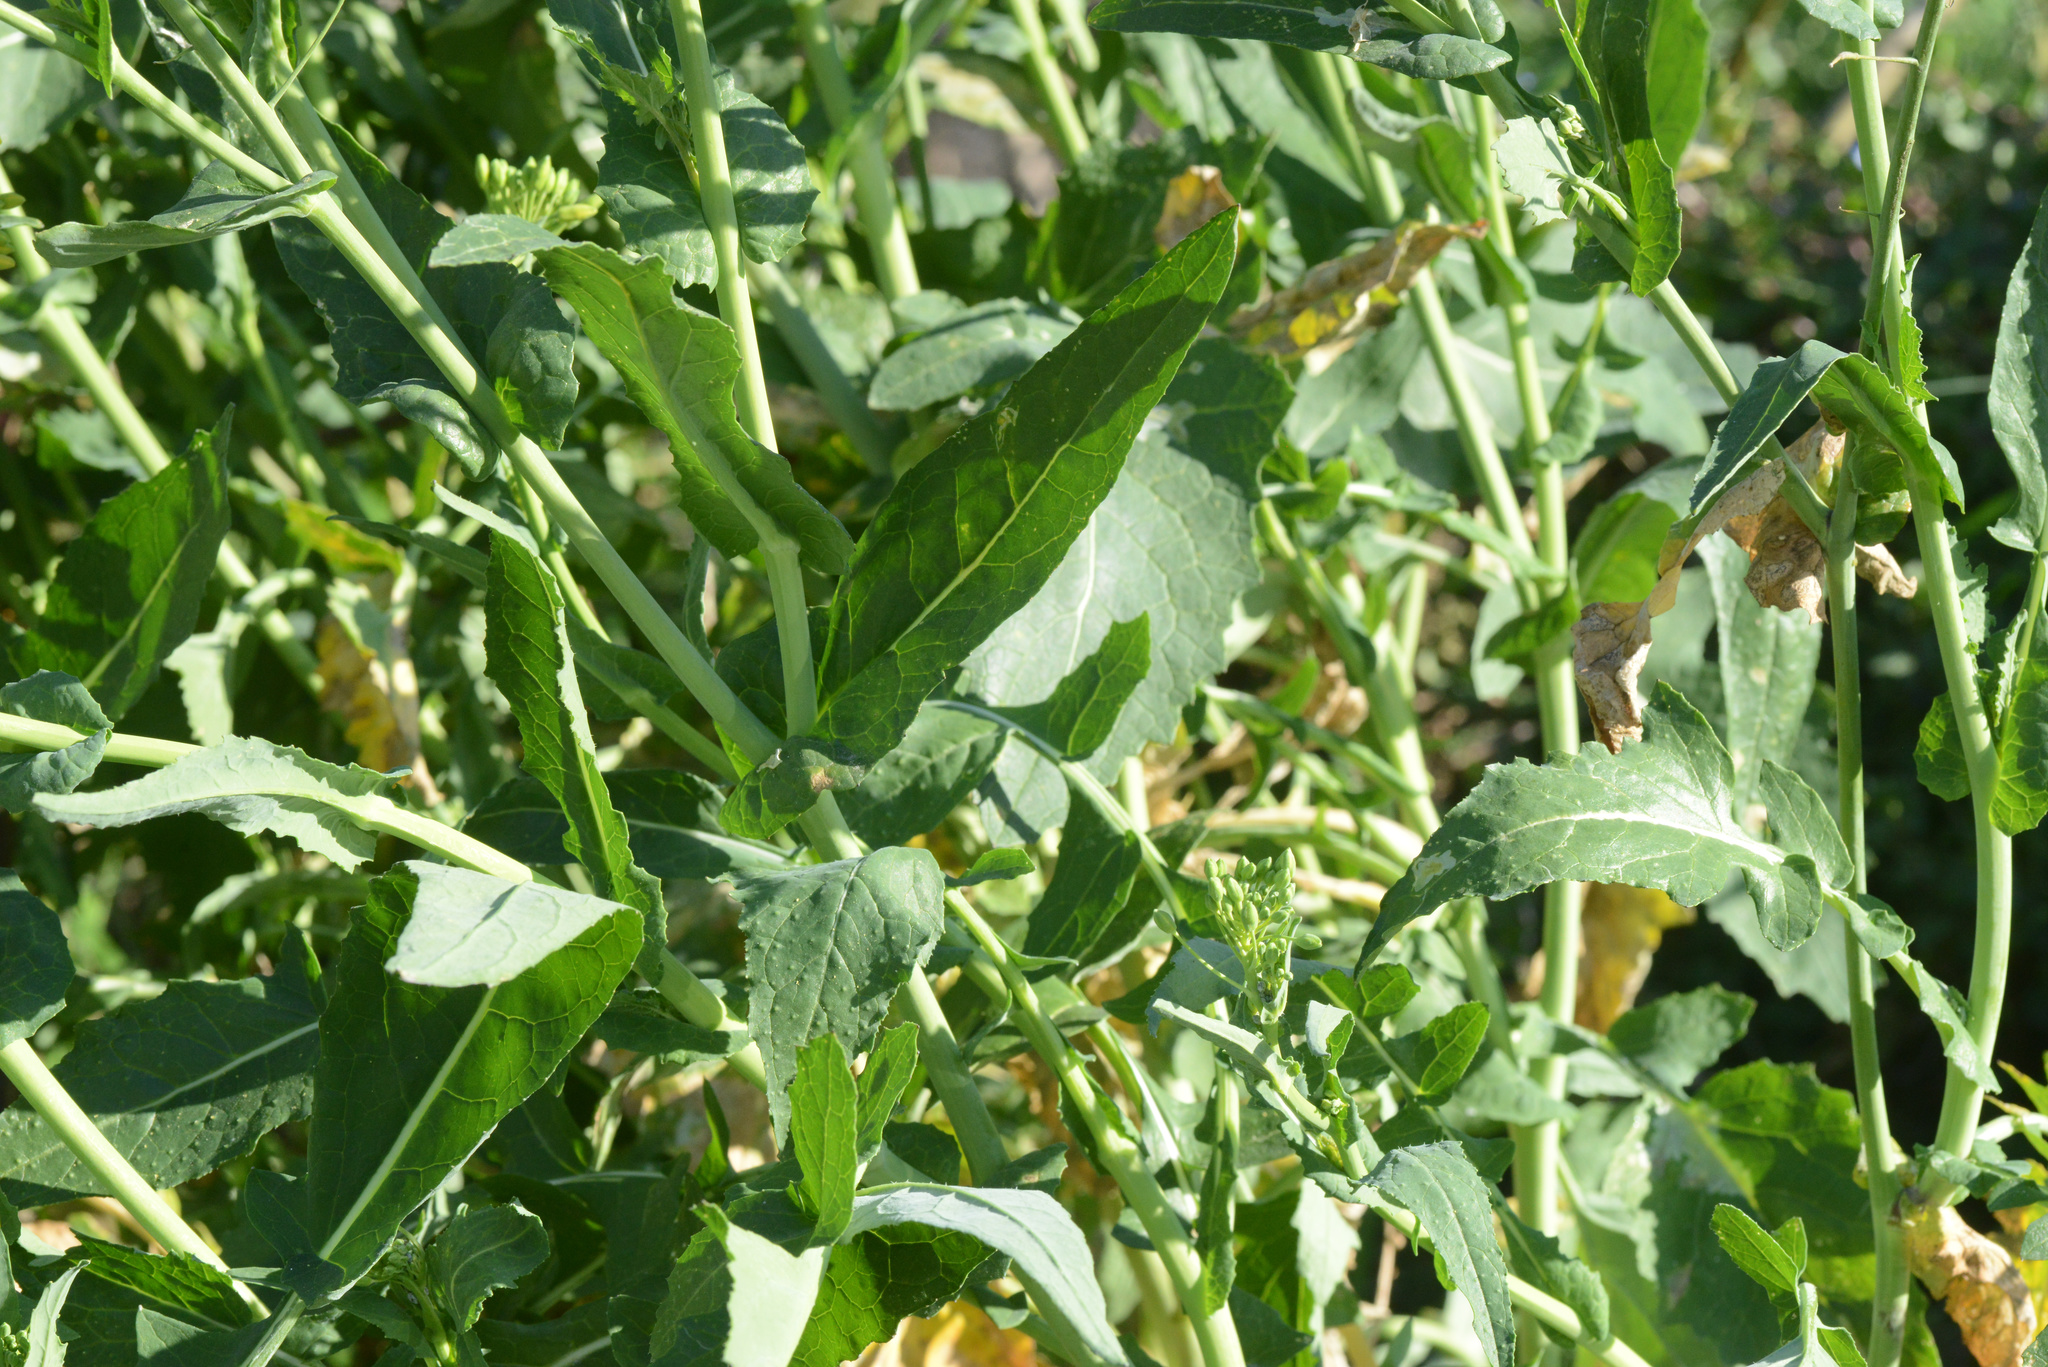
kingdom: Plantae
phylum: Tracheophyta
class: Magnoliopsida
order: Brassicales
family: Brassicaceae
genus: Brassica
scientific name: Brassica oleracea
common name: Cabbage
